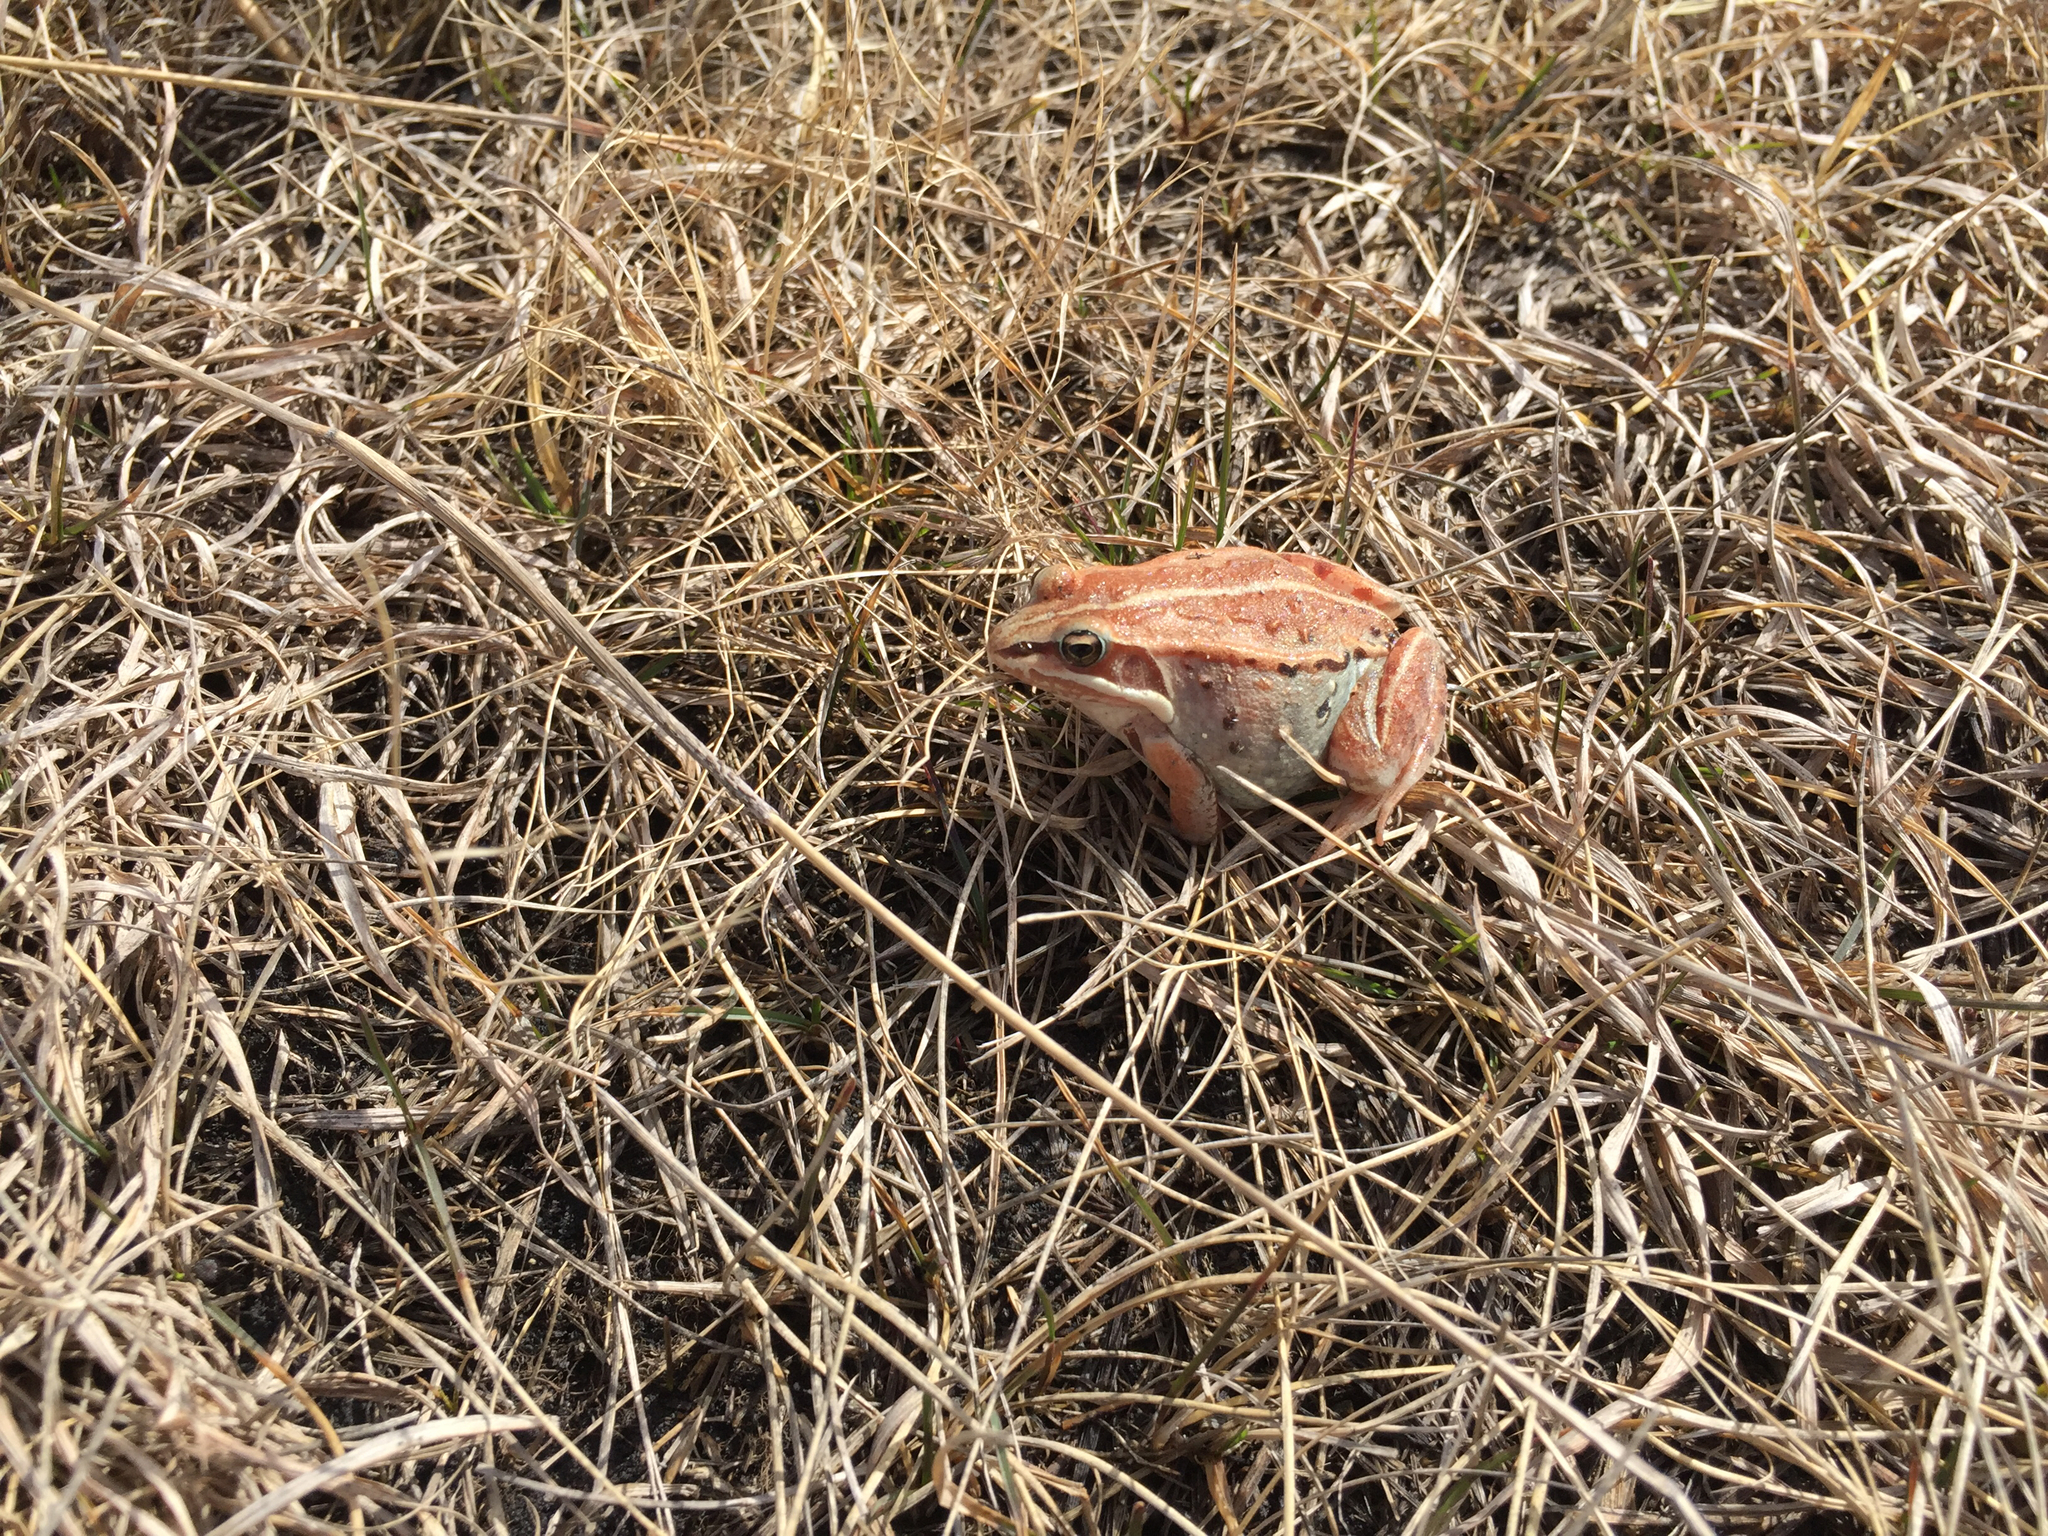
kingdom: Animalia
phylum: Chordata
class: Amphibia
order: Anura
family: Ranidae
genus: Lithobates
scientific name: Lithobates sylvaticus
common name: Wood frog
